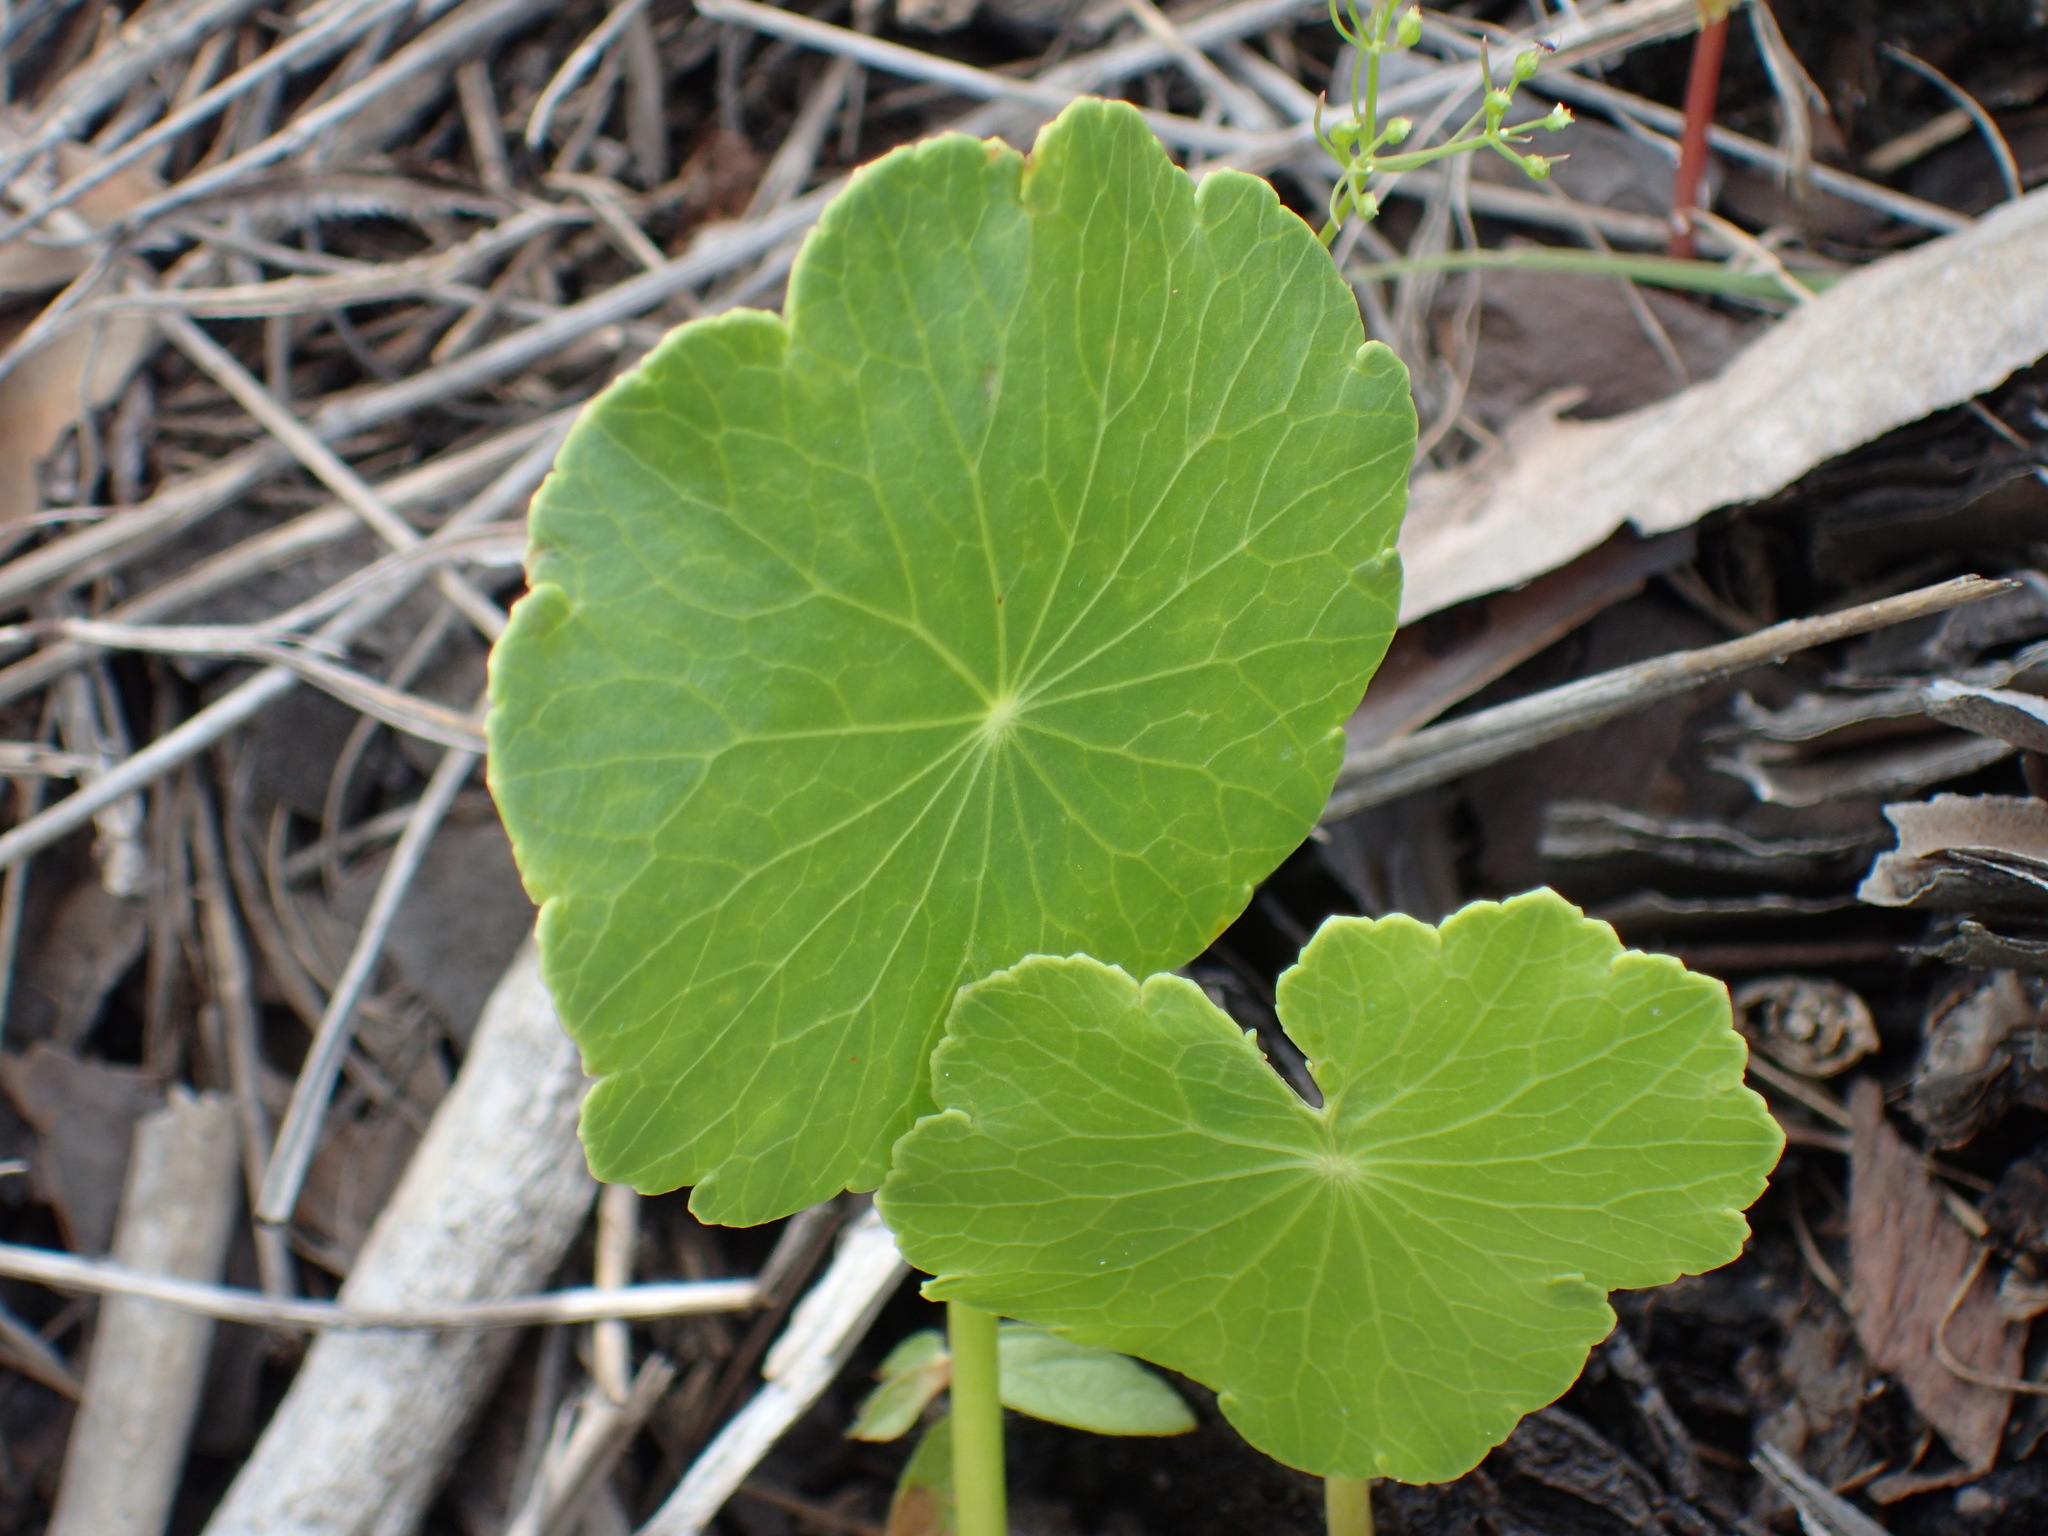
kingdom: Plantae
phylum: Tracheophyta
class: Magnoliopsida
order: Apiales
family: Araliaceae
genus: Hydrocotyle
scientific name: Hydrocotyle bonariensis
